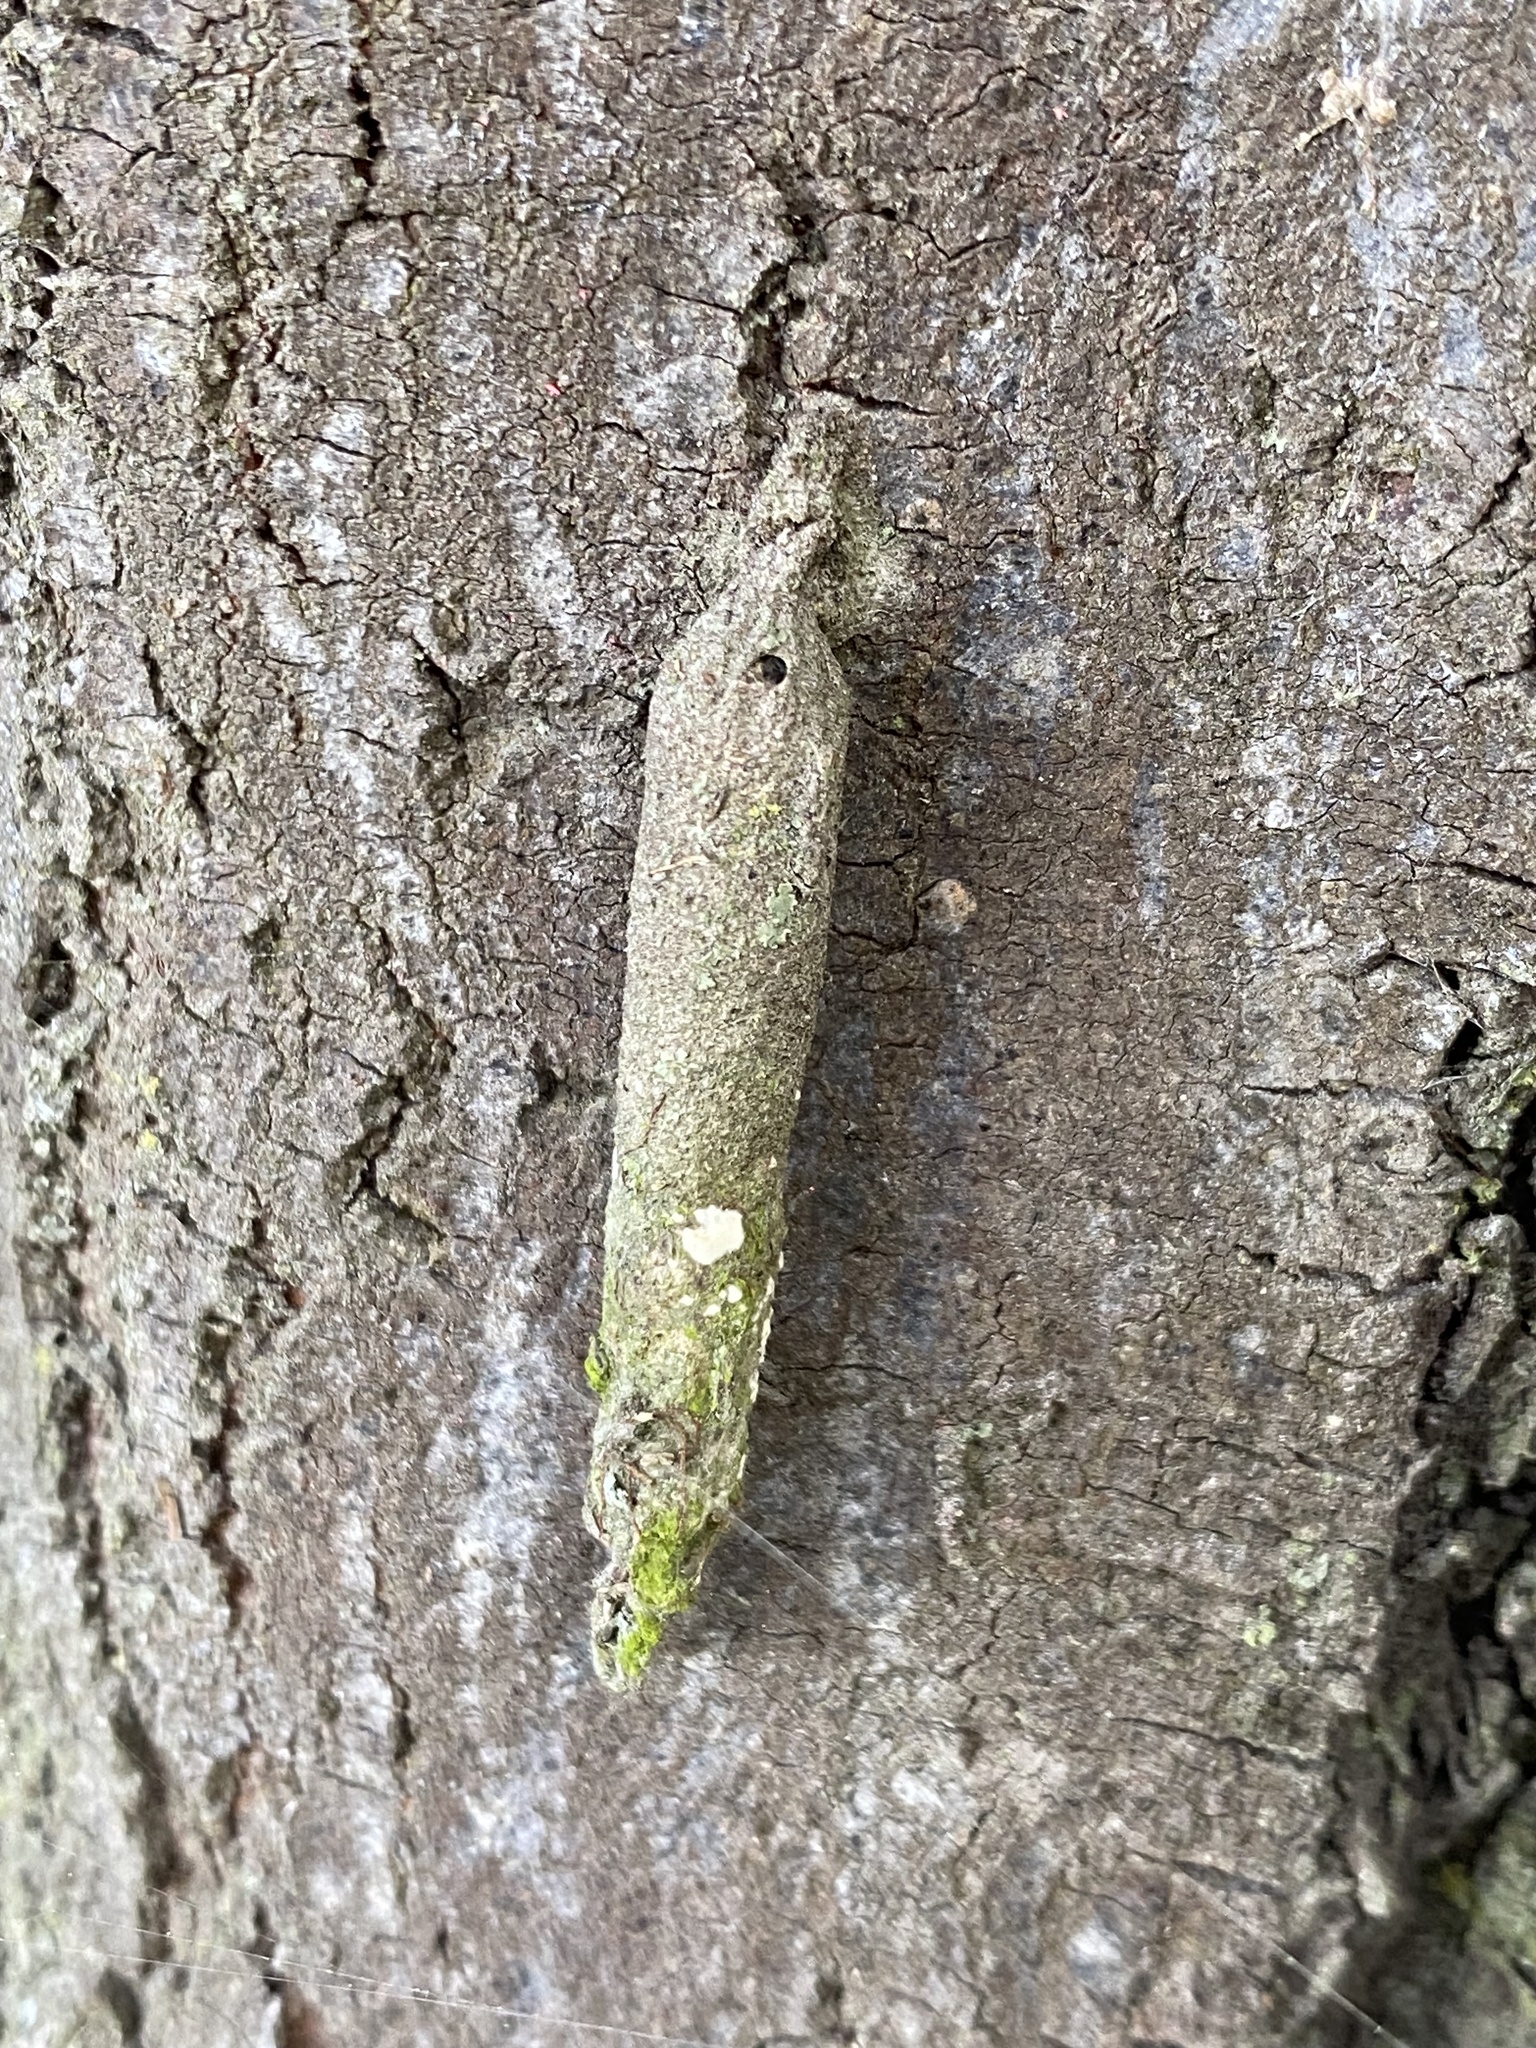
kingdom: Animalia
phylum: Arthropoda
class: Insecta
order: Lepidoptera
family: Psychidae
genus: Liothula
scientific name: Liothula omnivora
